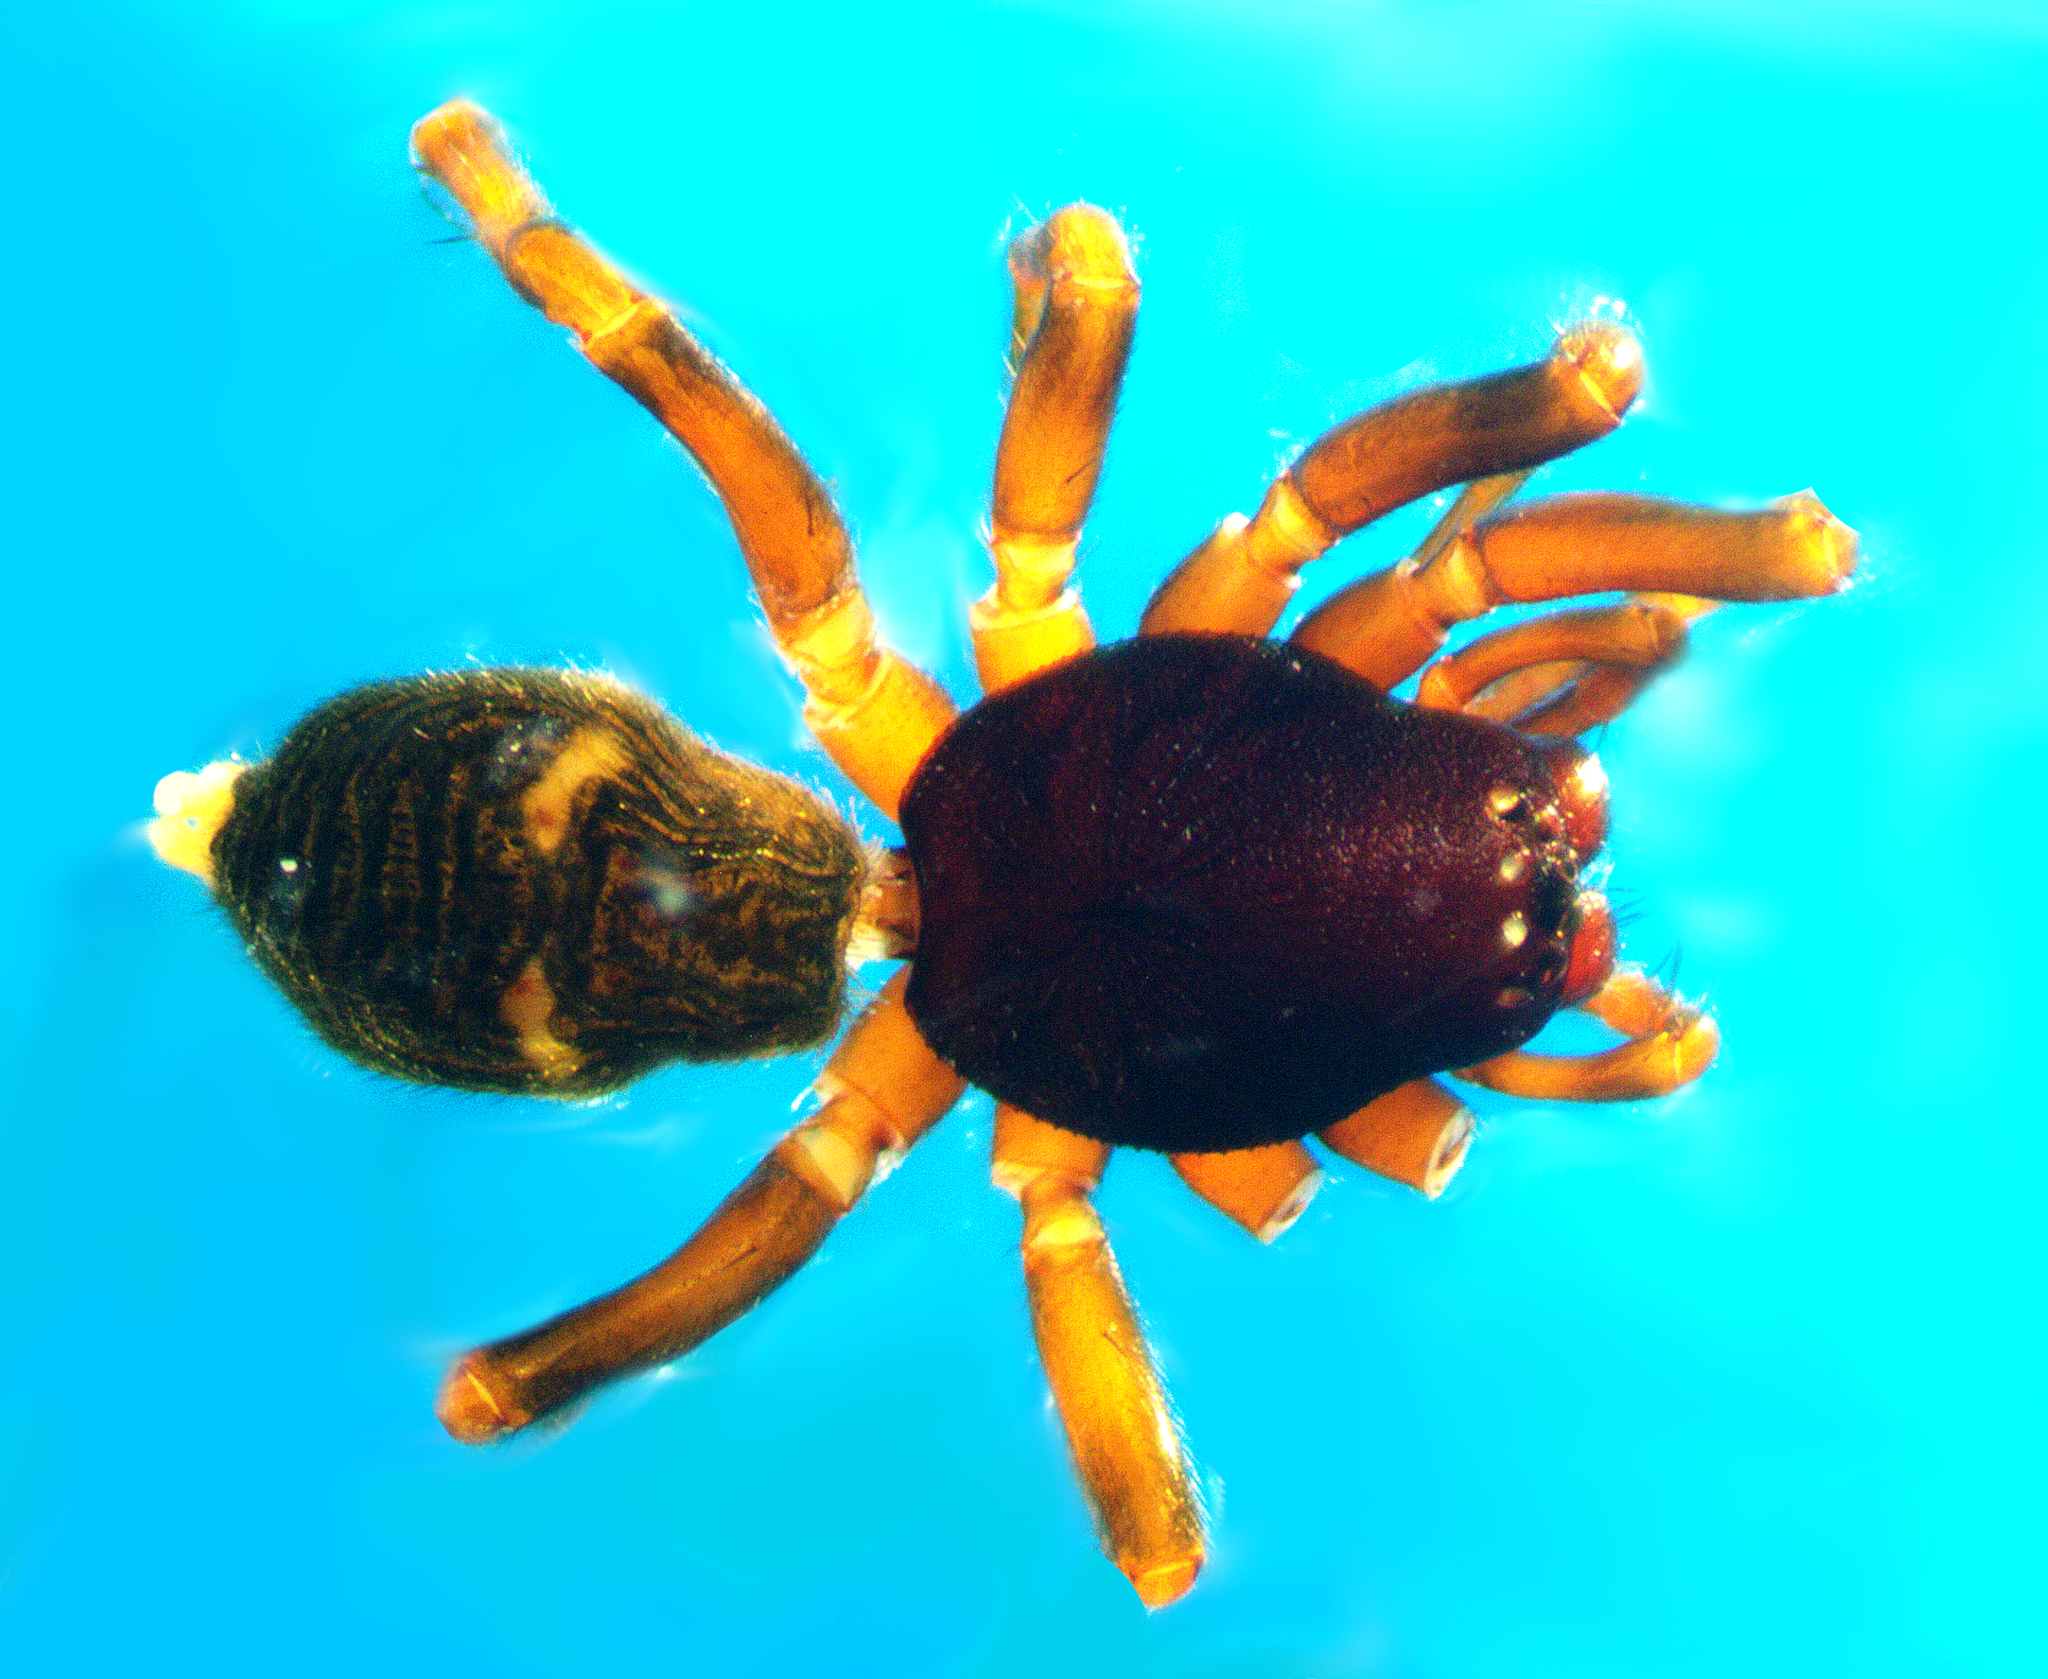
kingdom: Animalia
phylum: Arthropoda
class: Arachnida
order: Araneae
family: Lamponidae
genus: Graycassis
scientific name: Graycassis chichester
